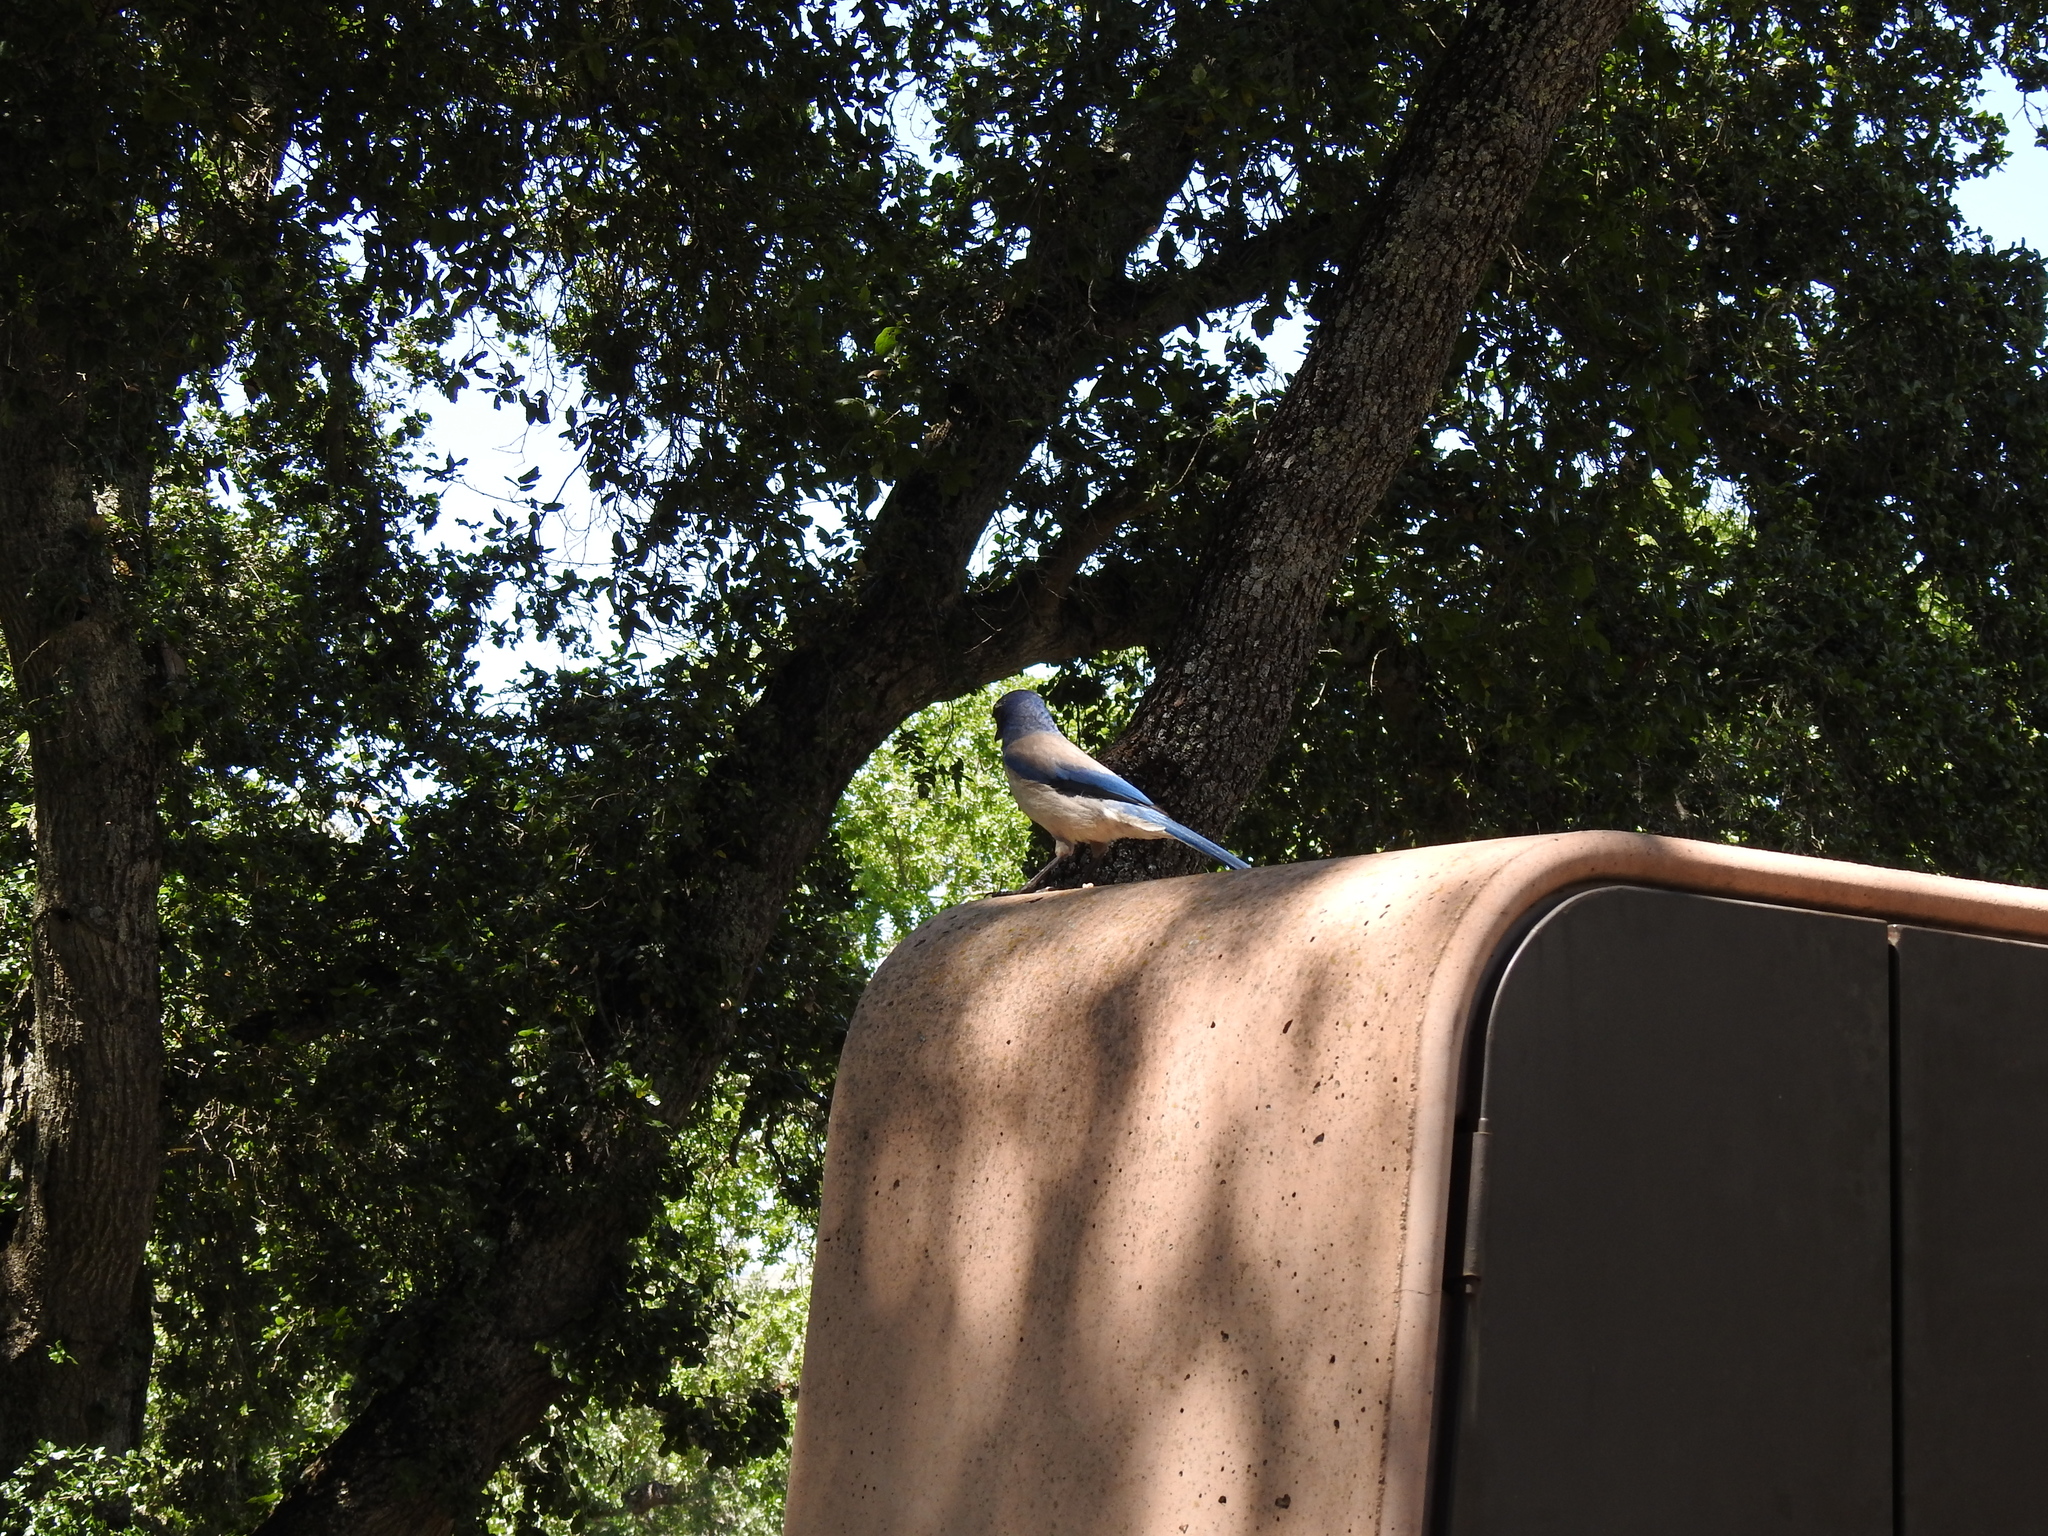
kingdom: Animalia
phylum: Chordata
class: Aves
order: Passeriformes
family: Corvidae
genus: Aphelocoma
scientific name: Aphelocoma californica
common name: California scrub-jay
